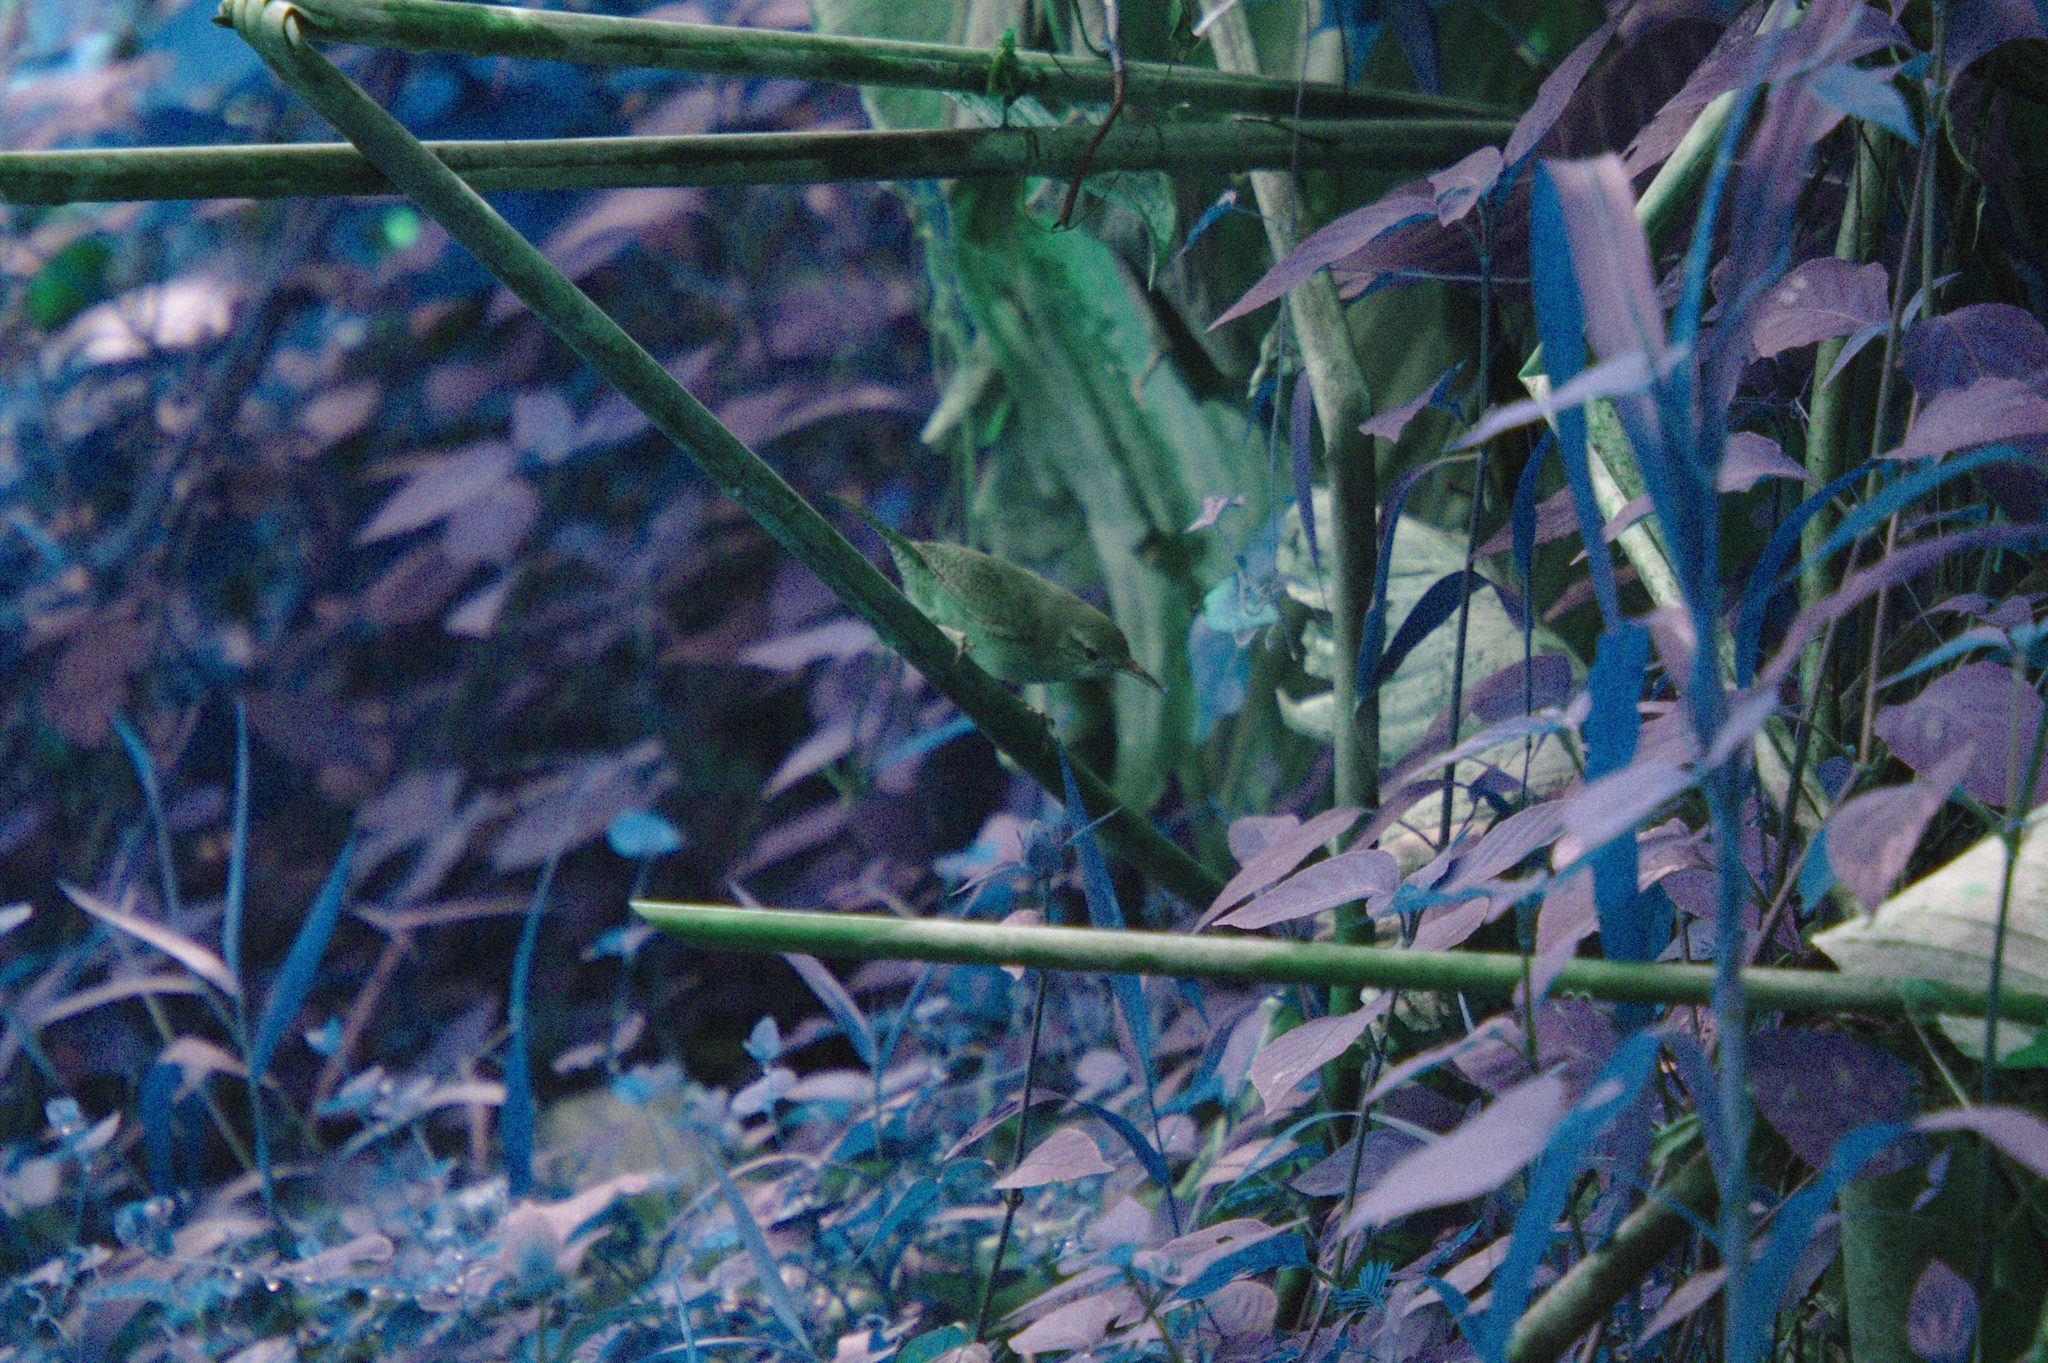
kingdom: Animalia
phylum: Chordata
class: Aves
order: Passeriformes
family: Troglodytidae
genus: Troglodytes
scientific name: Troglodytes aedon
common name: House wren
